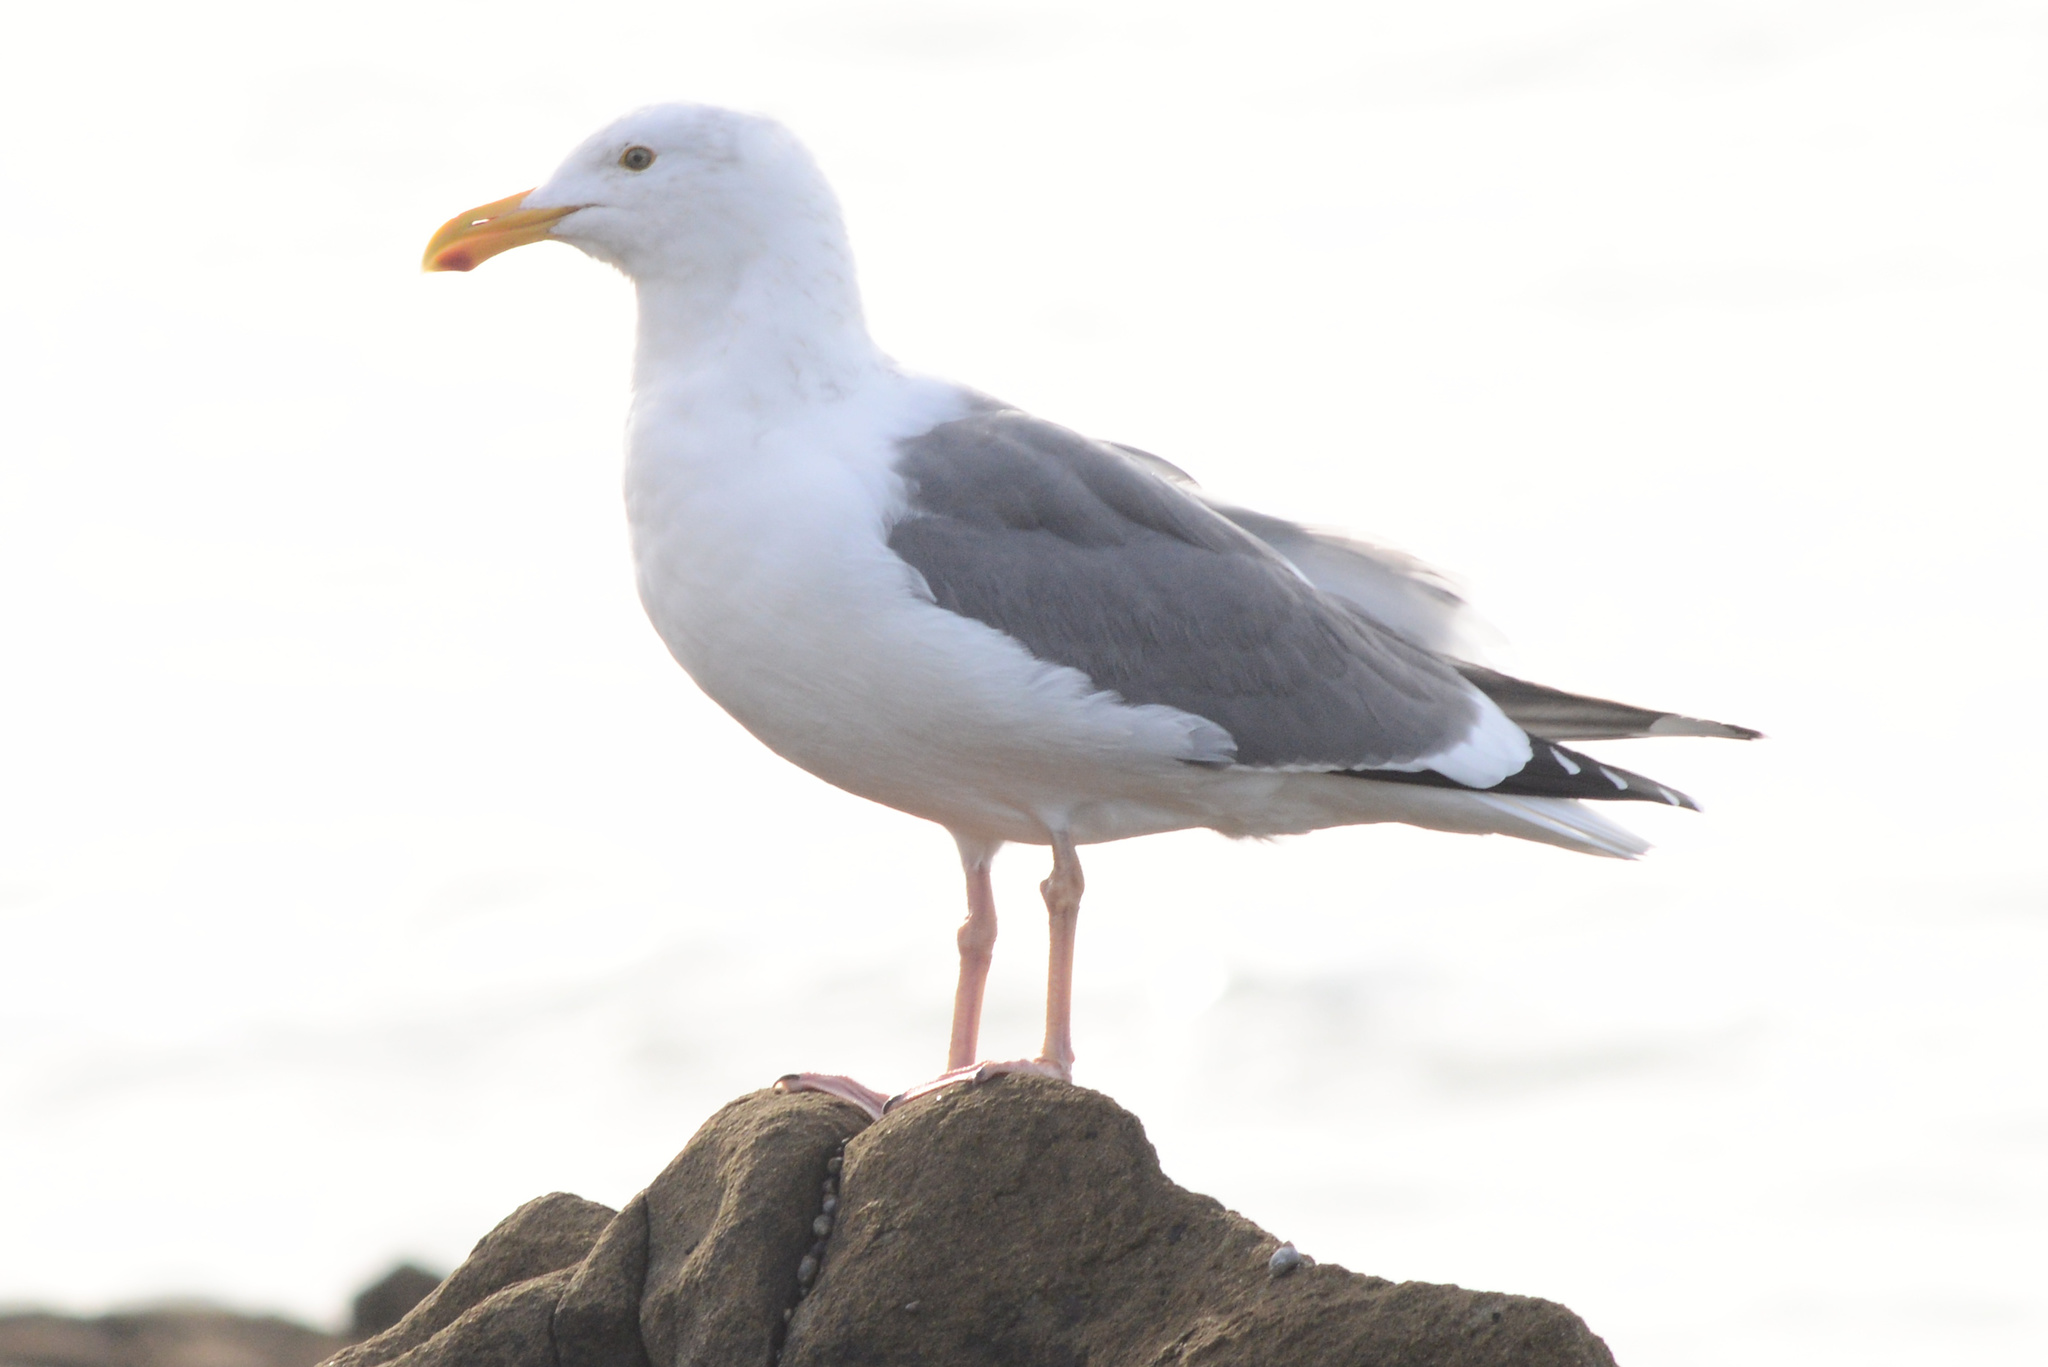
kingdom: Animalia
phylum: Chordata
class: Aves
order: Charadriiformes
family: Laridae
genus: Larus
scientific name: Larus occidentalis
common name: Western gull
